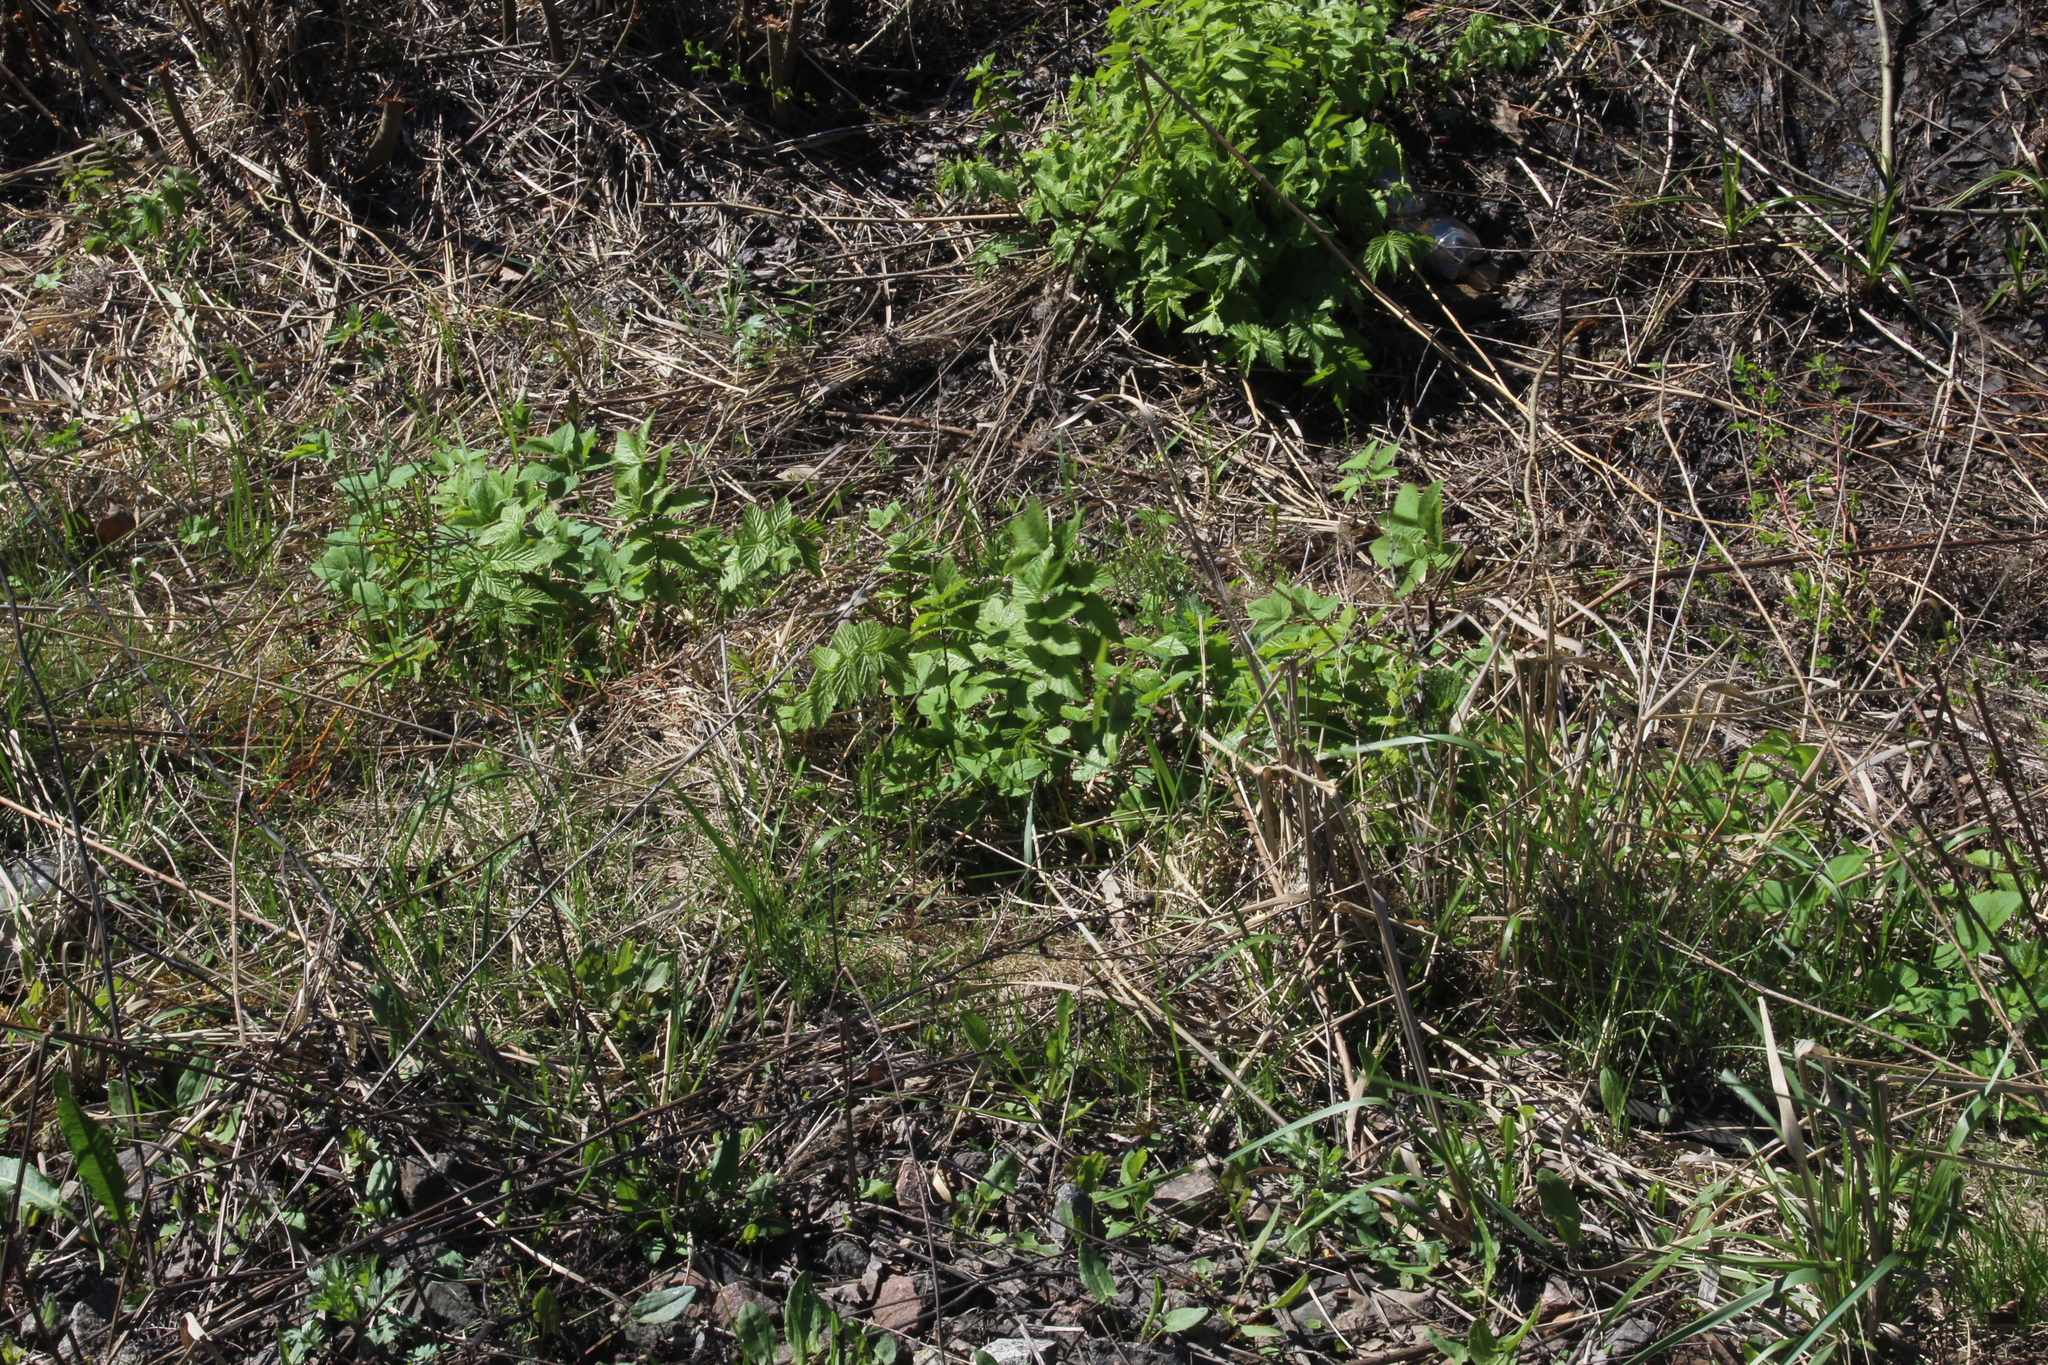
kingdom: Plantae
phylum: Tracheophyta
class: Magnoliopsida
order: Rosales
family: Rosaceae
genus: Filipendula
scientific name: Filipendula ulmaria
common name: Meadowsweet
